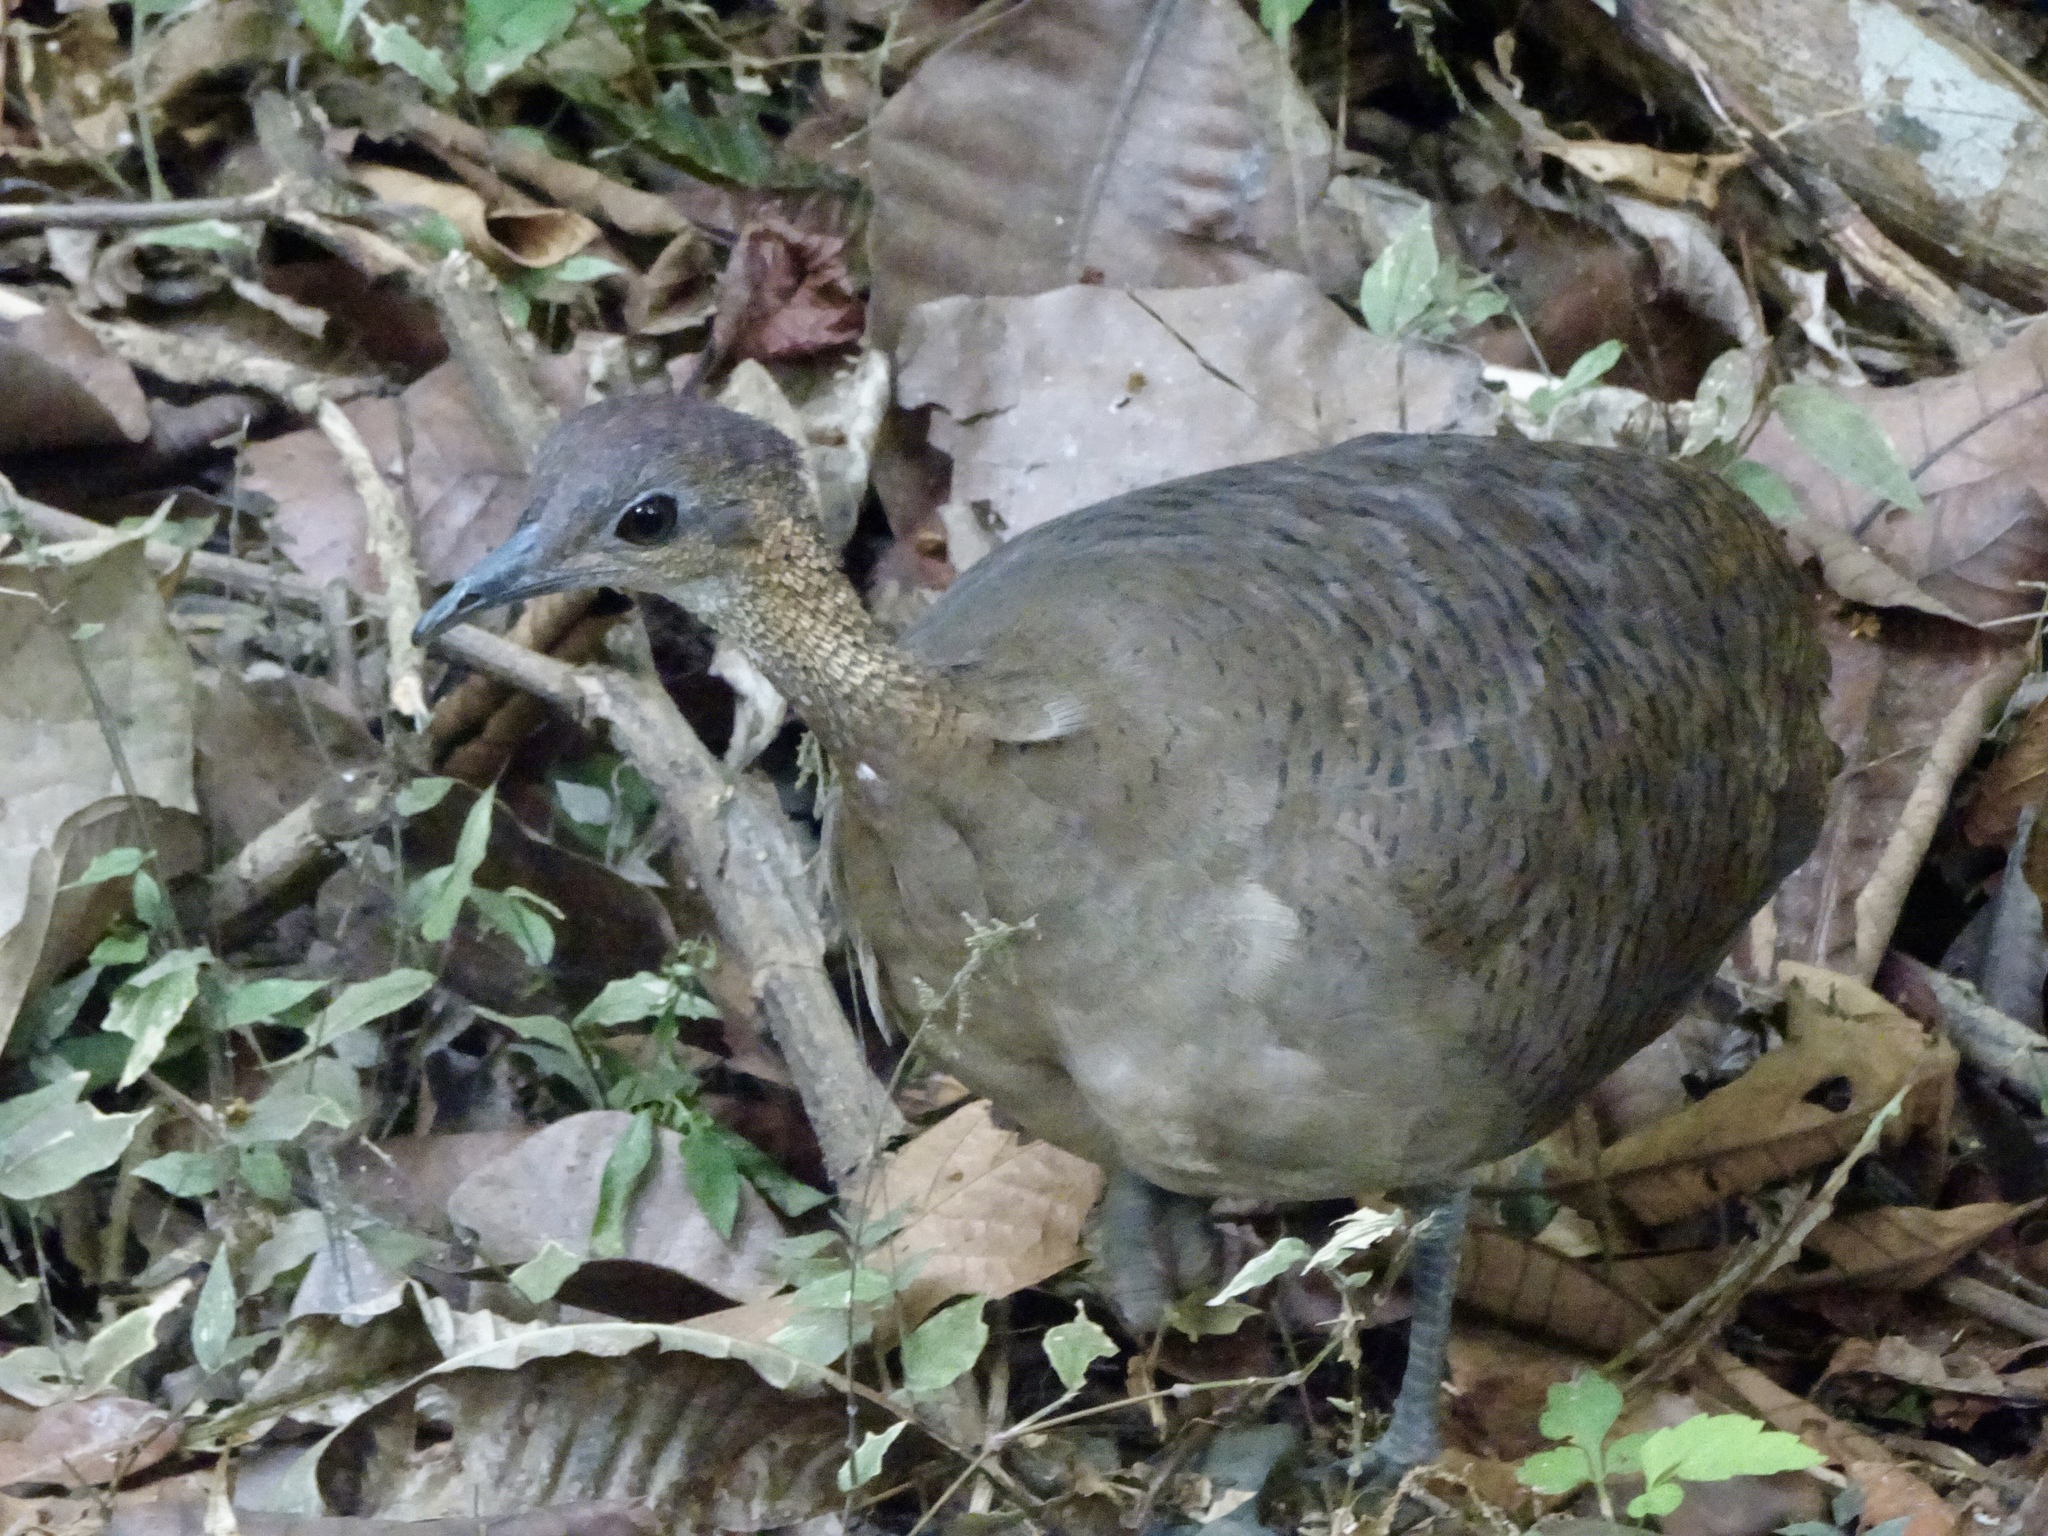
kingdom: Animalia
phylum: Chordata
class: Aves
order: Tinamiformes
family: Tinamidae
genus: Tinamus
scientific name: Tinamus major
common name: Great tinamou
